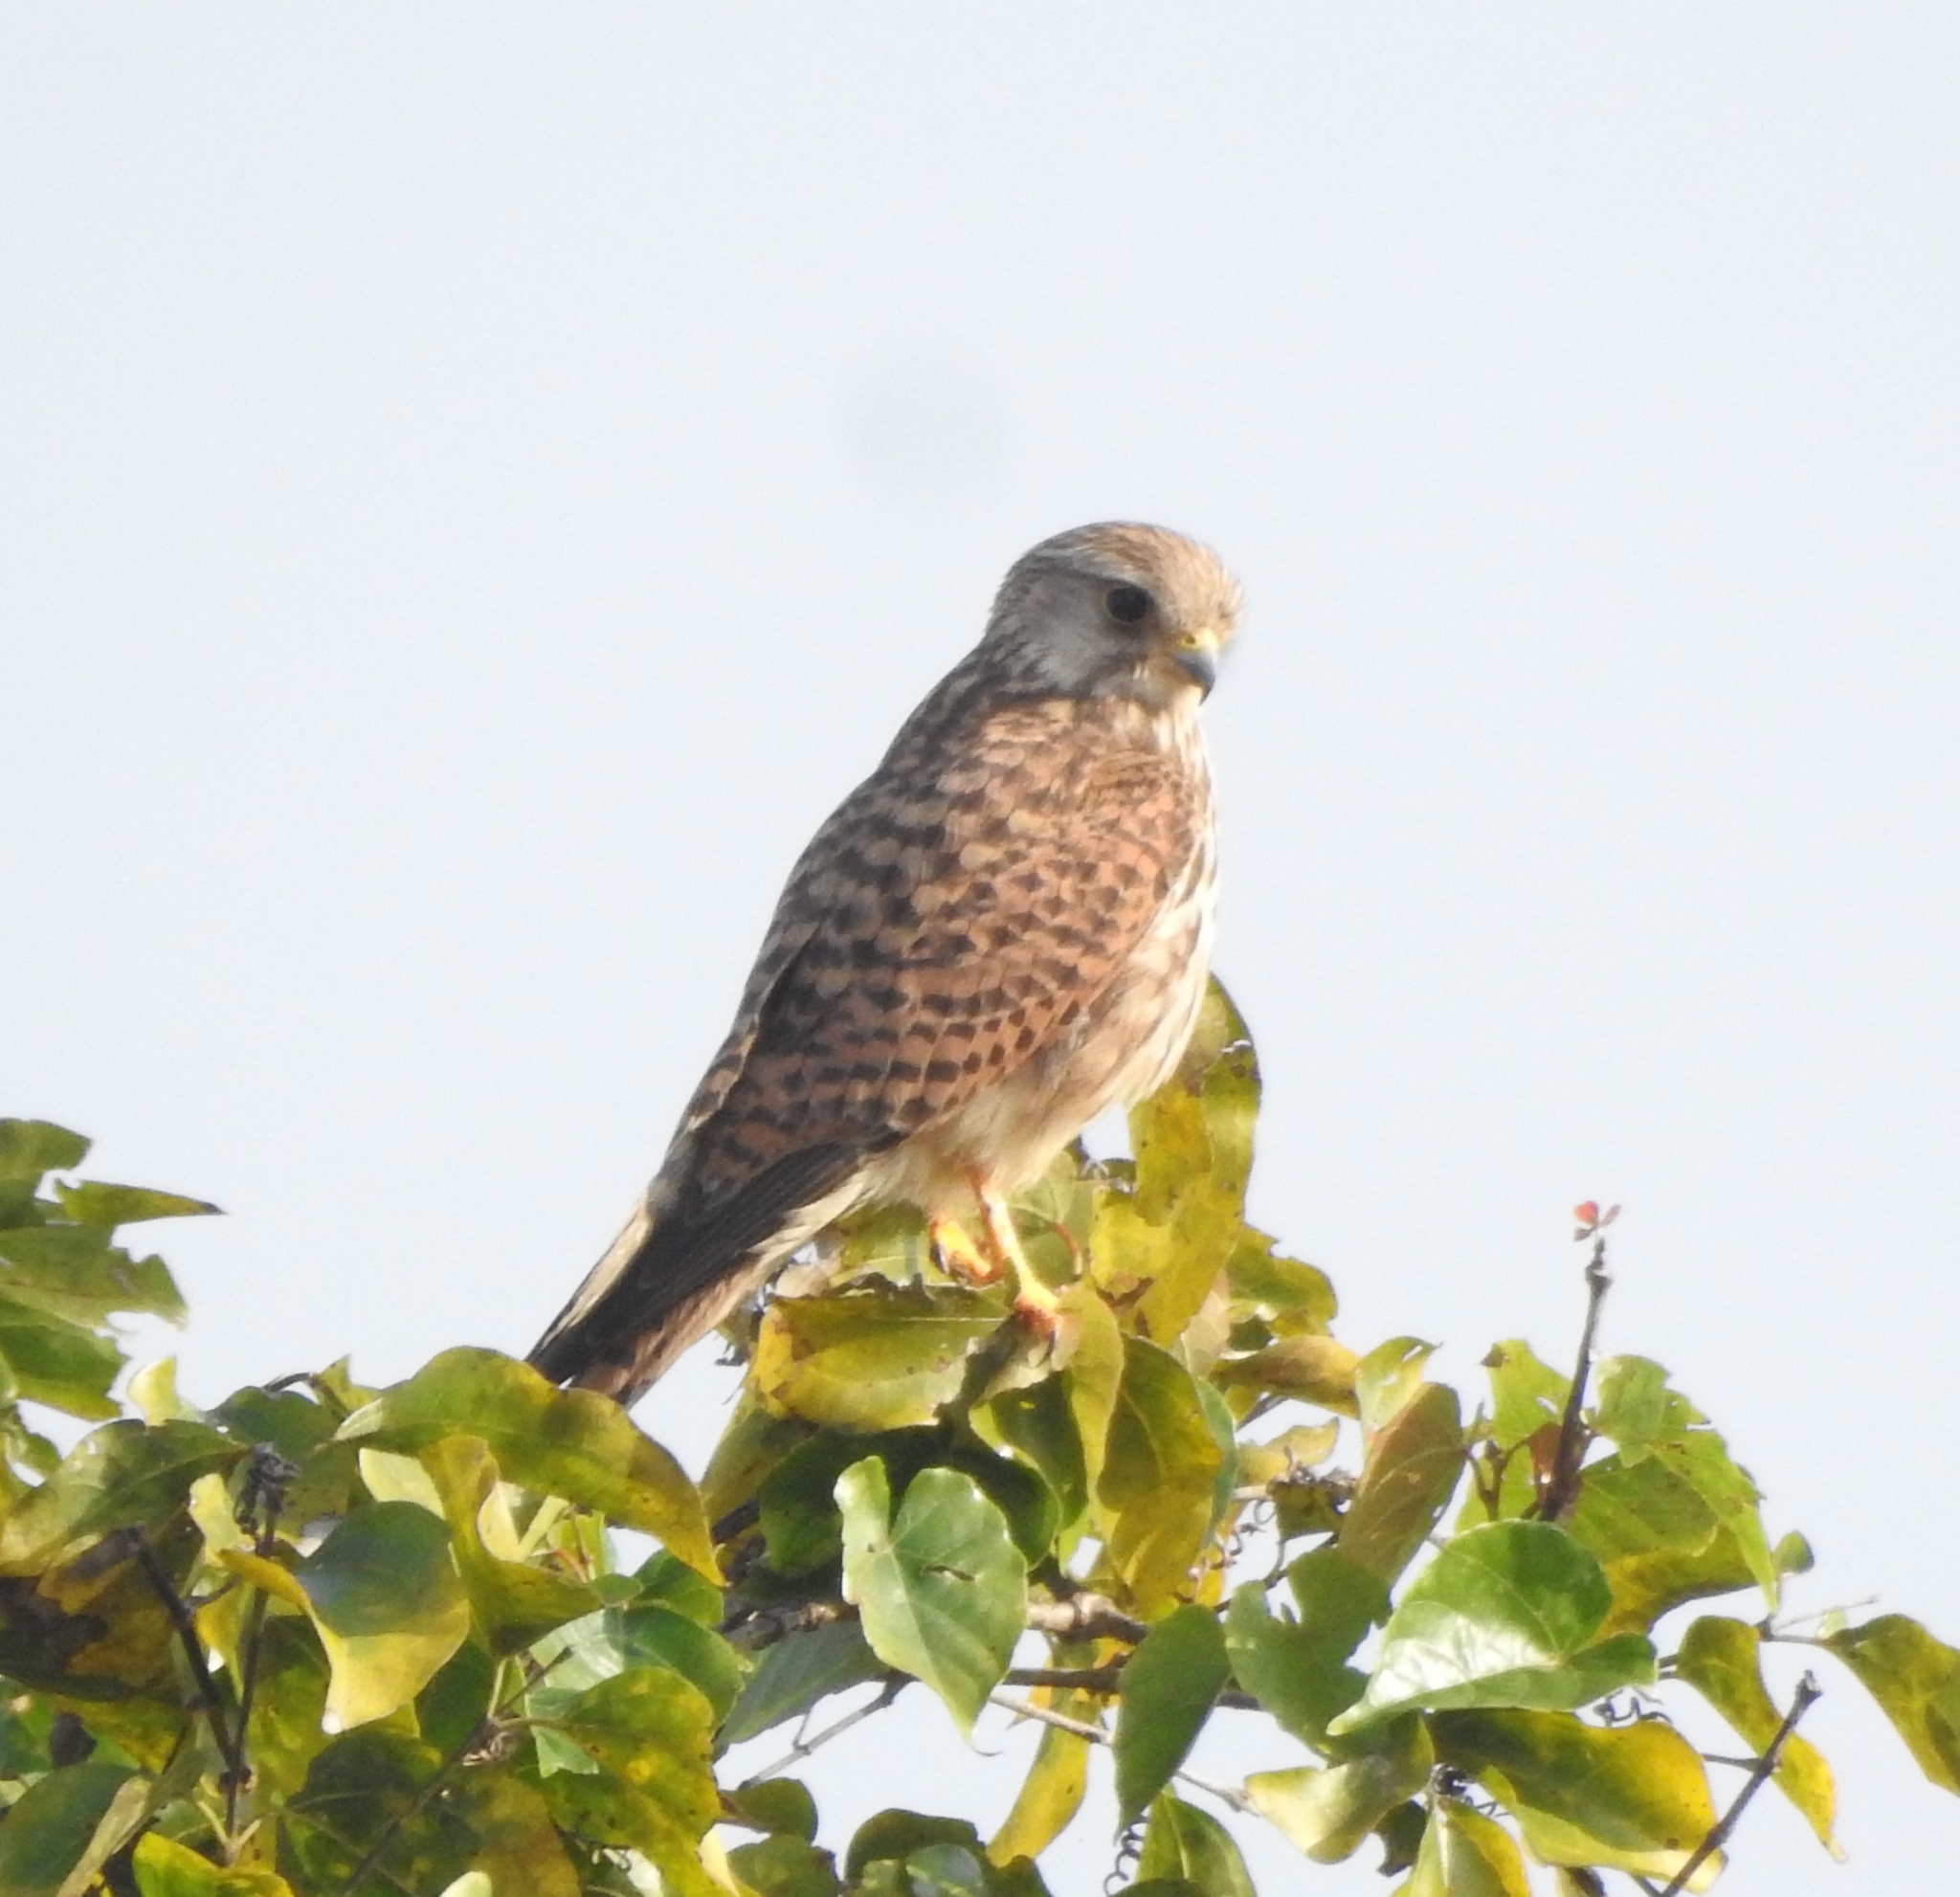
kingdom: Animalia
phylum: Chordata
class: Aves
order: Falconiformes
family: Falconidae
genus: Falco
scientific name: Falco tinnunculus
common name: Common kestrel
